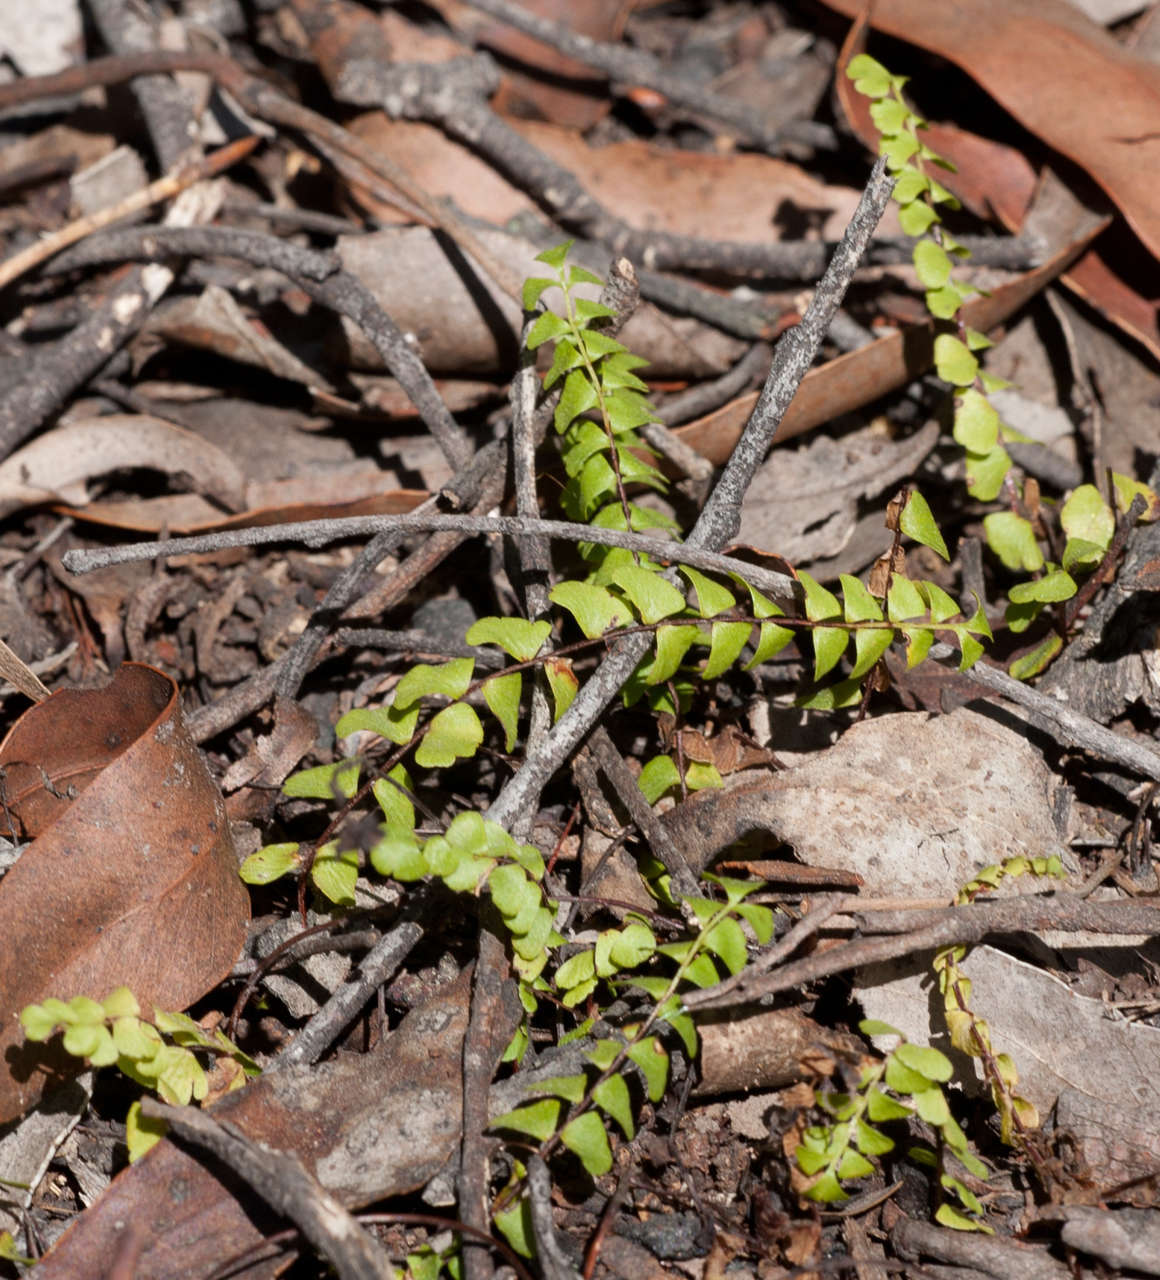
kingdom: Plantae
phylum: Tracheophyta
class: Polypodiopsida
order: Polypodiales
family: Lindsaeaceae
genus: Lindsaea
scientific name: Lindsaea linearis
